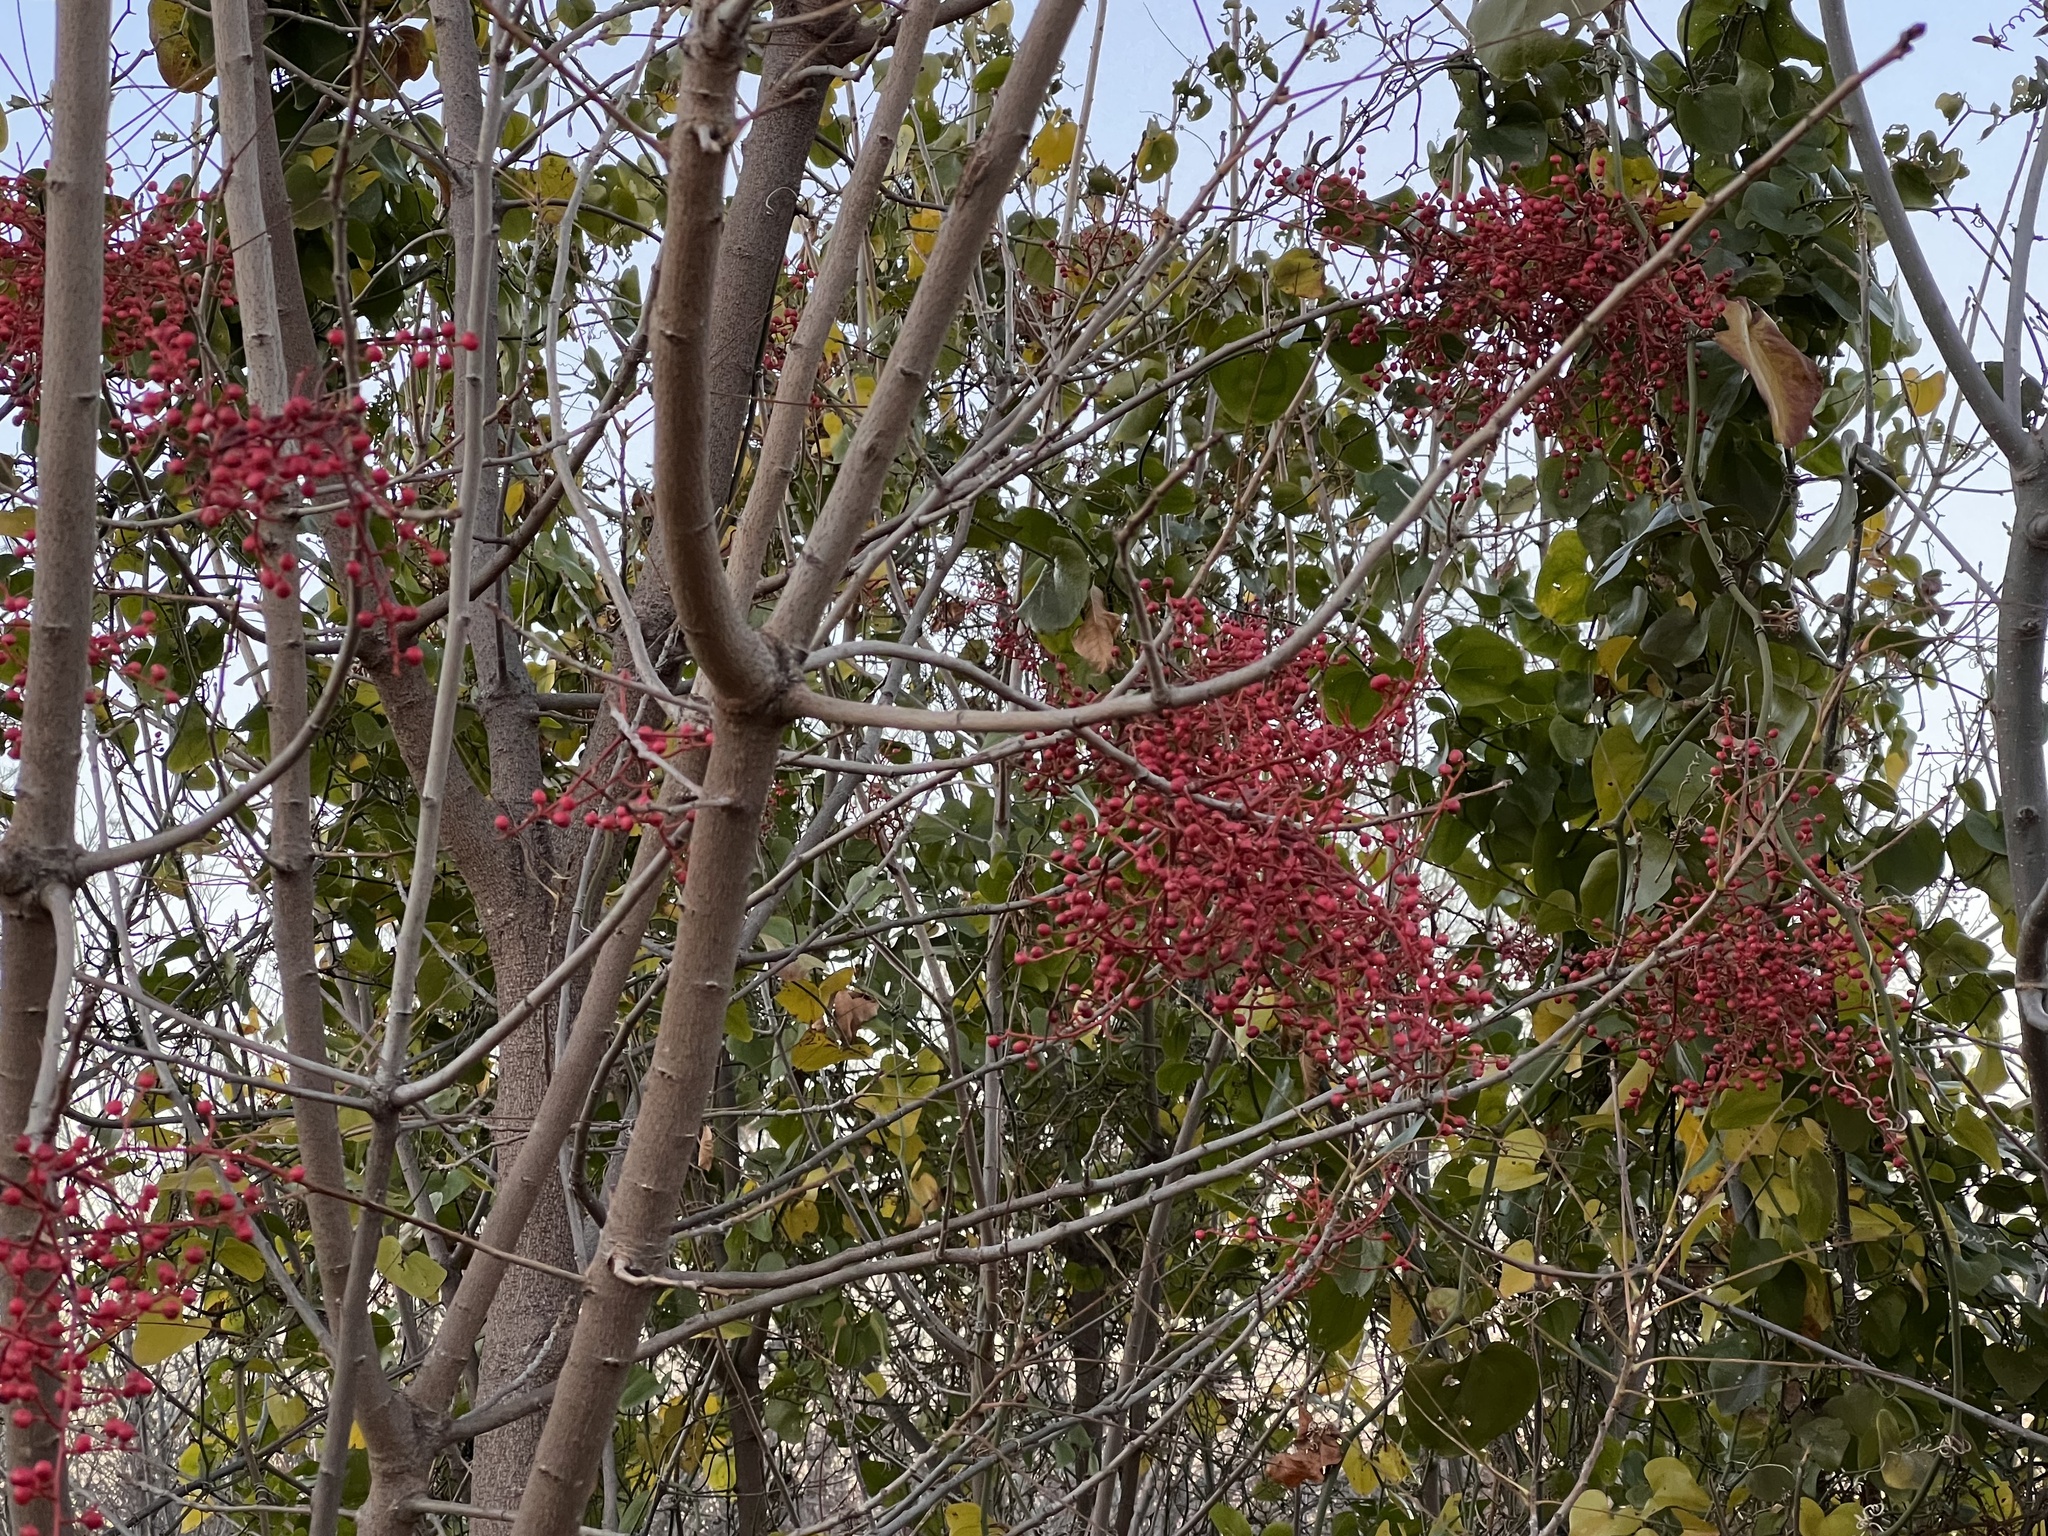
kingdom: Plantae
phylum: Tracheophyta
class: Magnoliopsida
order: Sapindales
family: Anacardiaceae
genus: Pistacia
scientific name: Pistacia chinensis
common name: Chinese pistache
